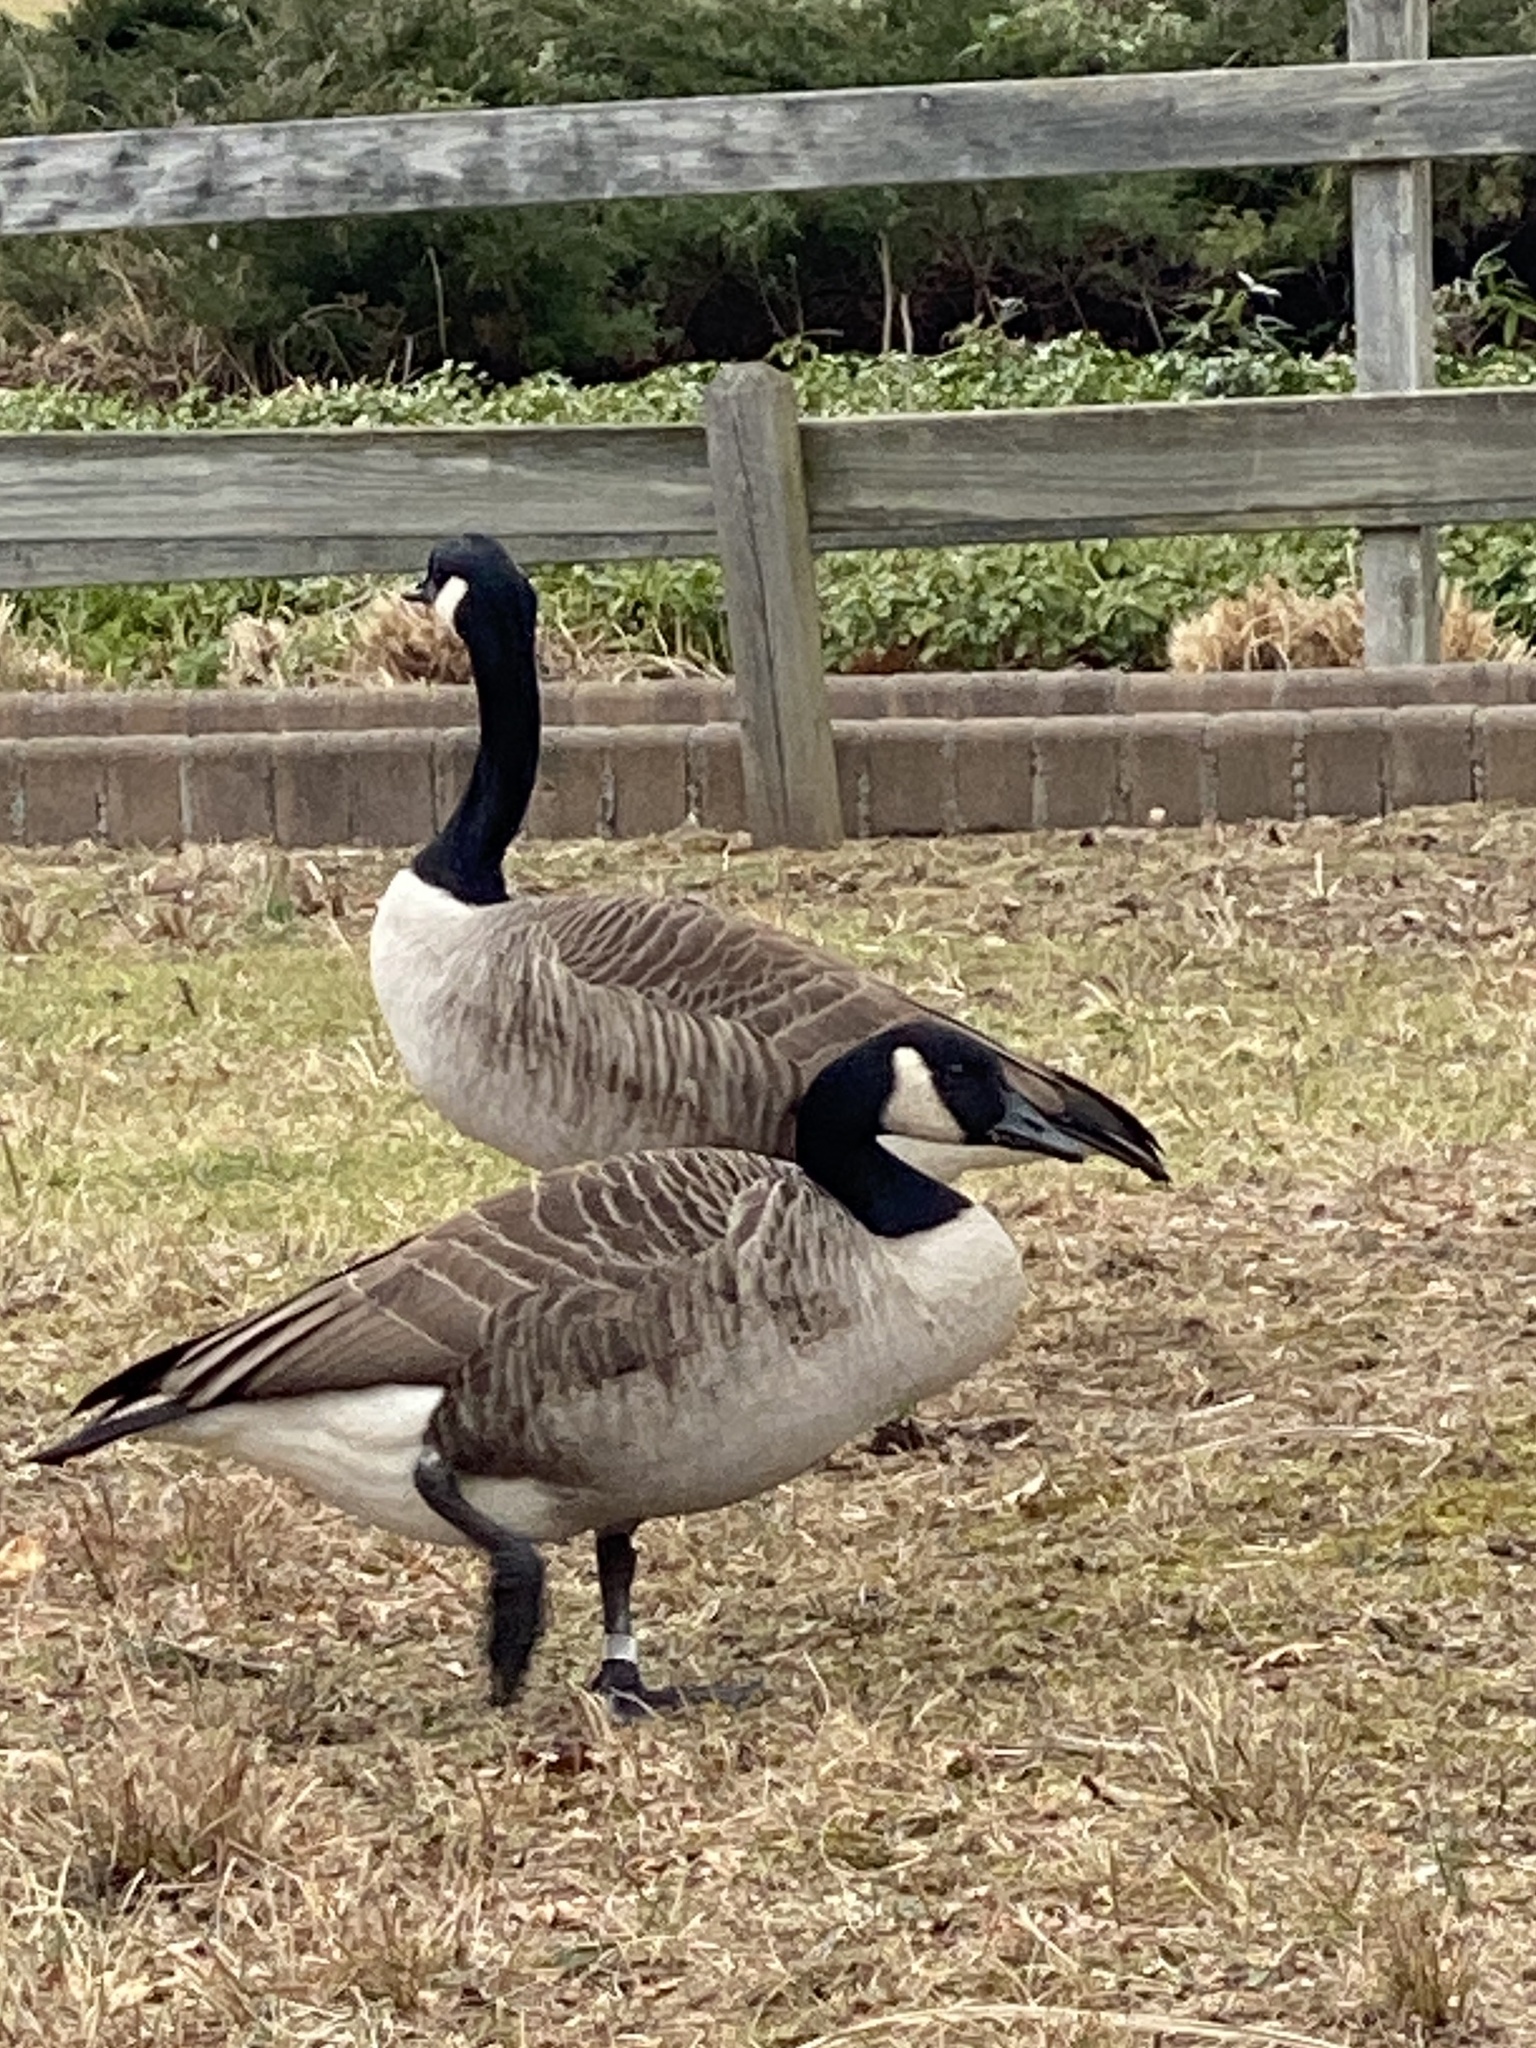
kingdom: Animalia
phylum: Chordata
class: Aves
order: Anseriformes
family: Anatidae
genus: Branta
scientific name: Branta canadensis
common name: Canada goose
